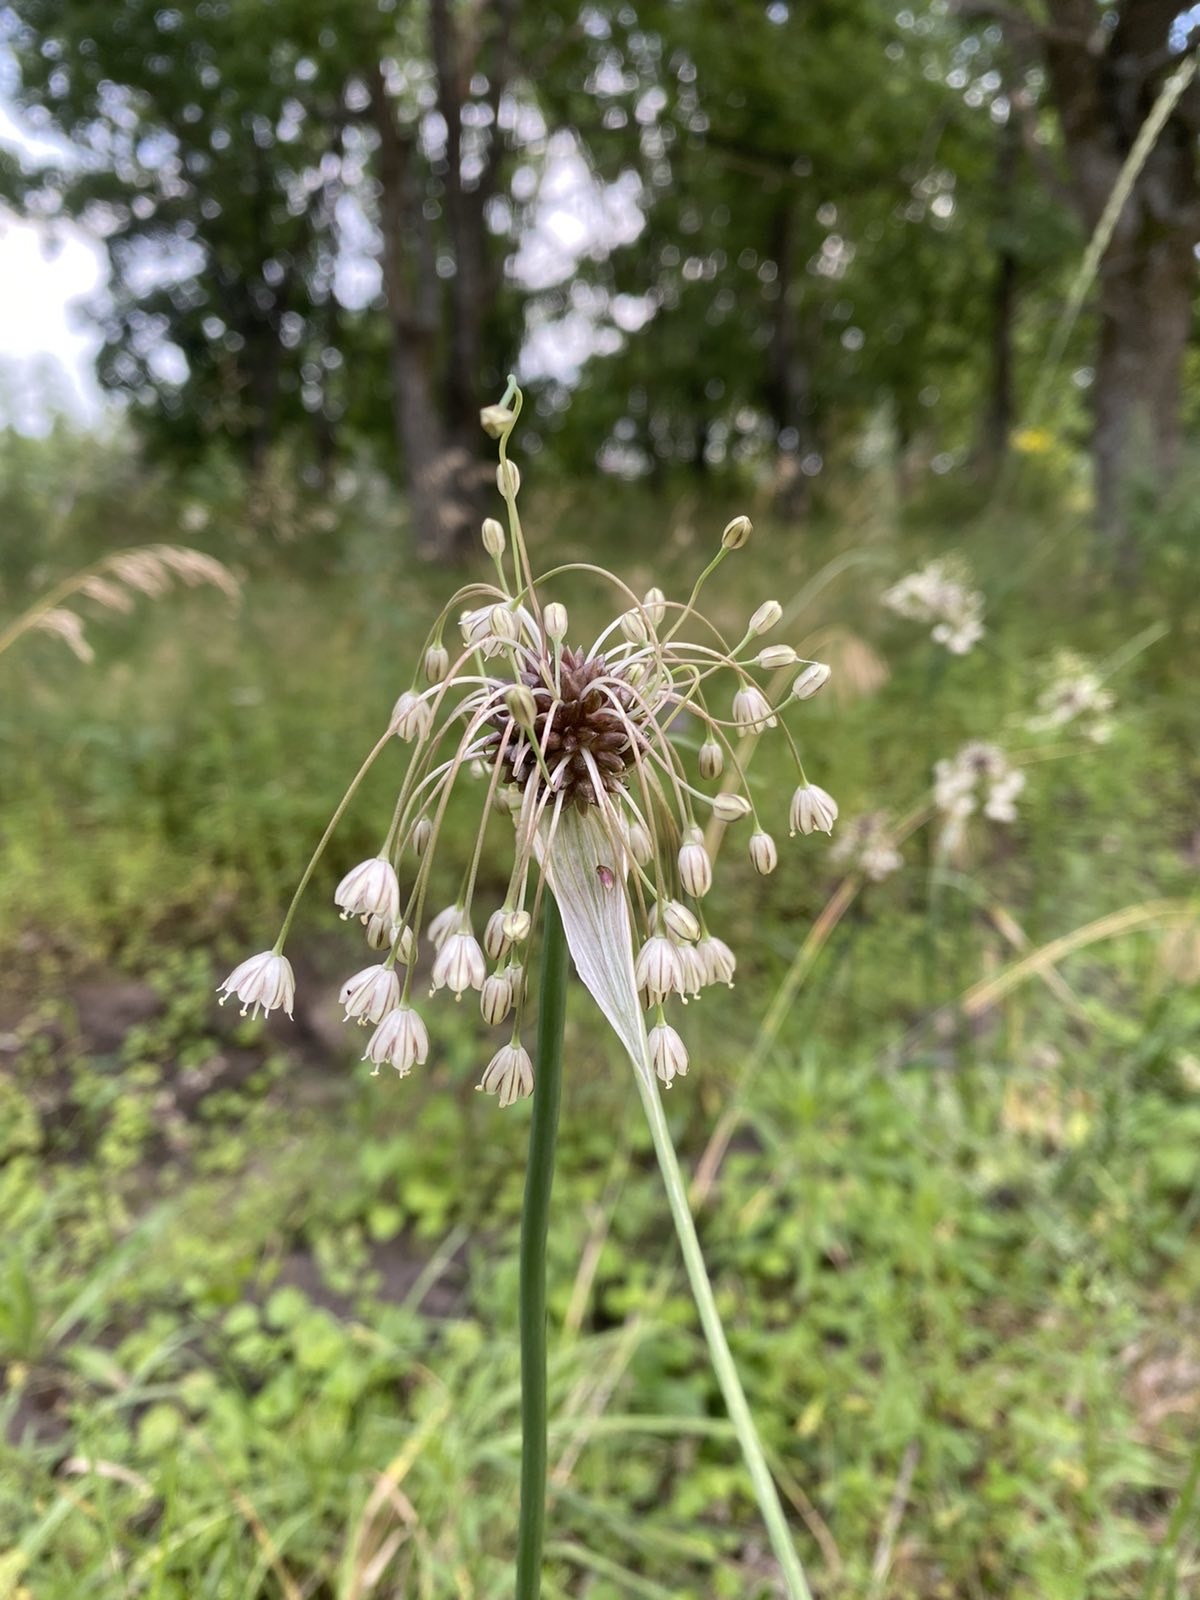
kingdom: Plantae
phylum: Tracheophyta
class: Liliopsida
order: Asparagales
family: Amaryllidaceae
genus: Allium
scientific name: Allium oleraceum
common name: Field garlic
